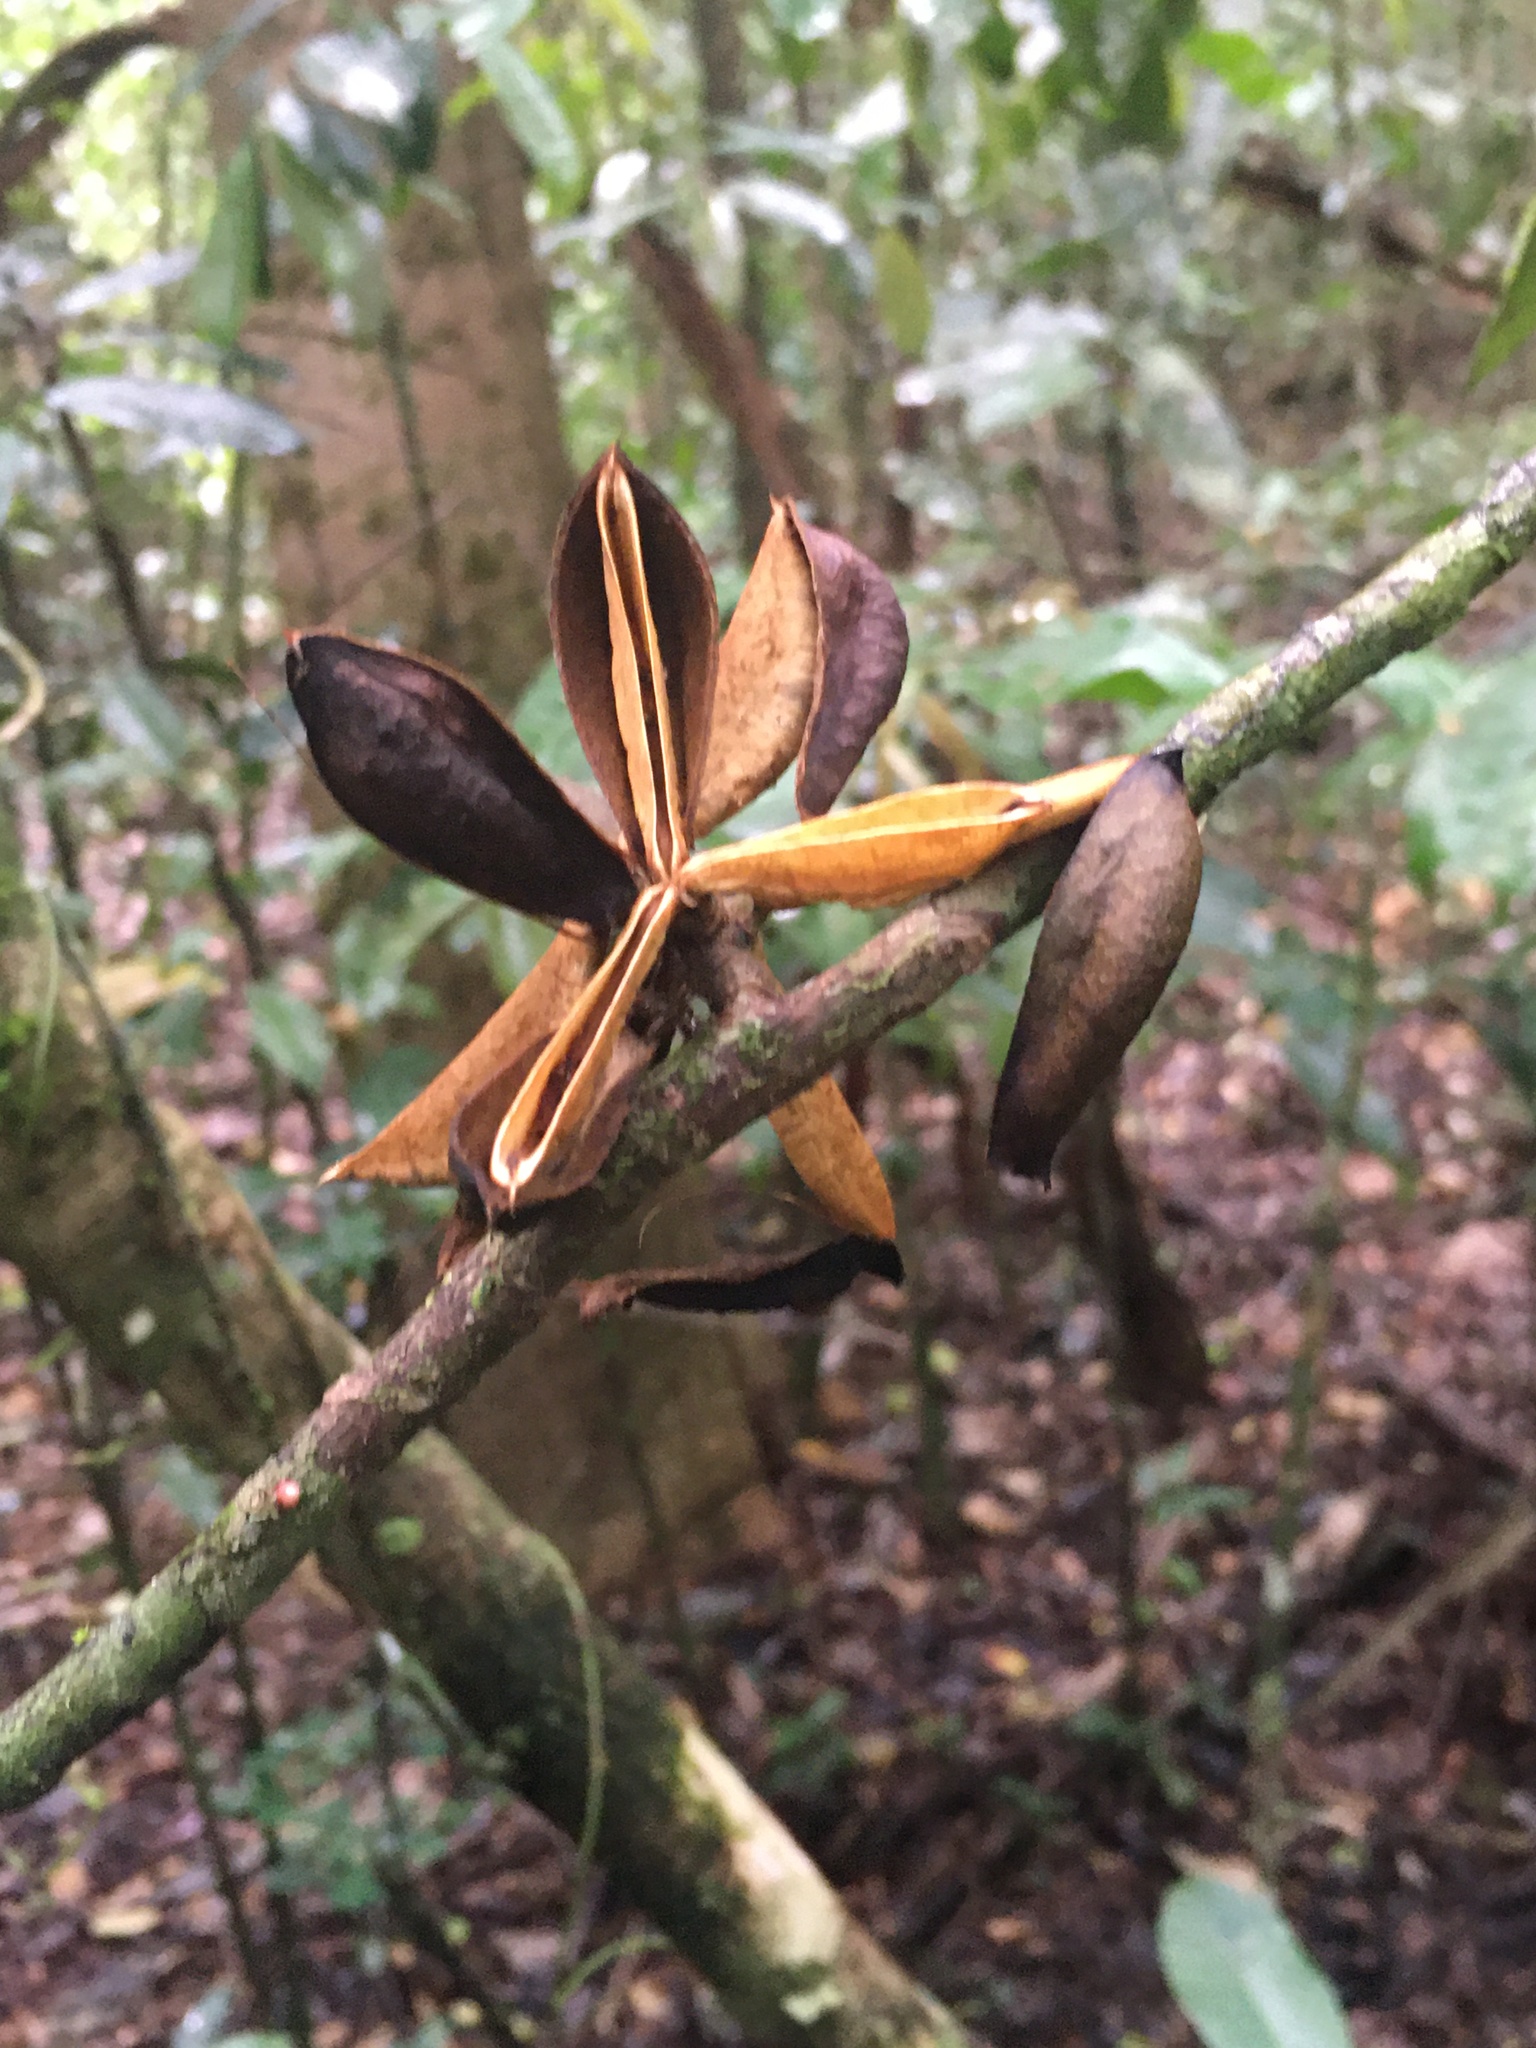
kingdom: Plantae
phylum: Tracheophyta
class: Magnoliopsida
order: Malpighiales
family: Violaceae
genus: Paypayrola
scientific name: Paypayrola blanchetiana
